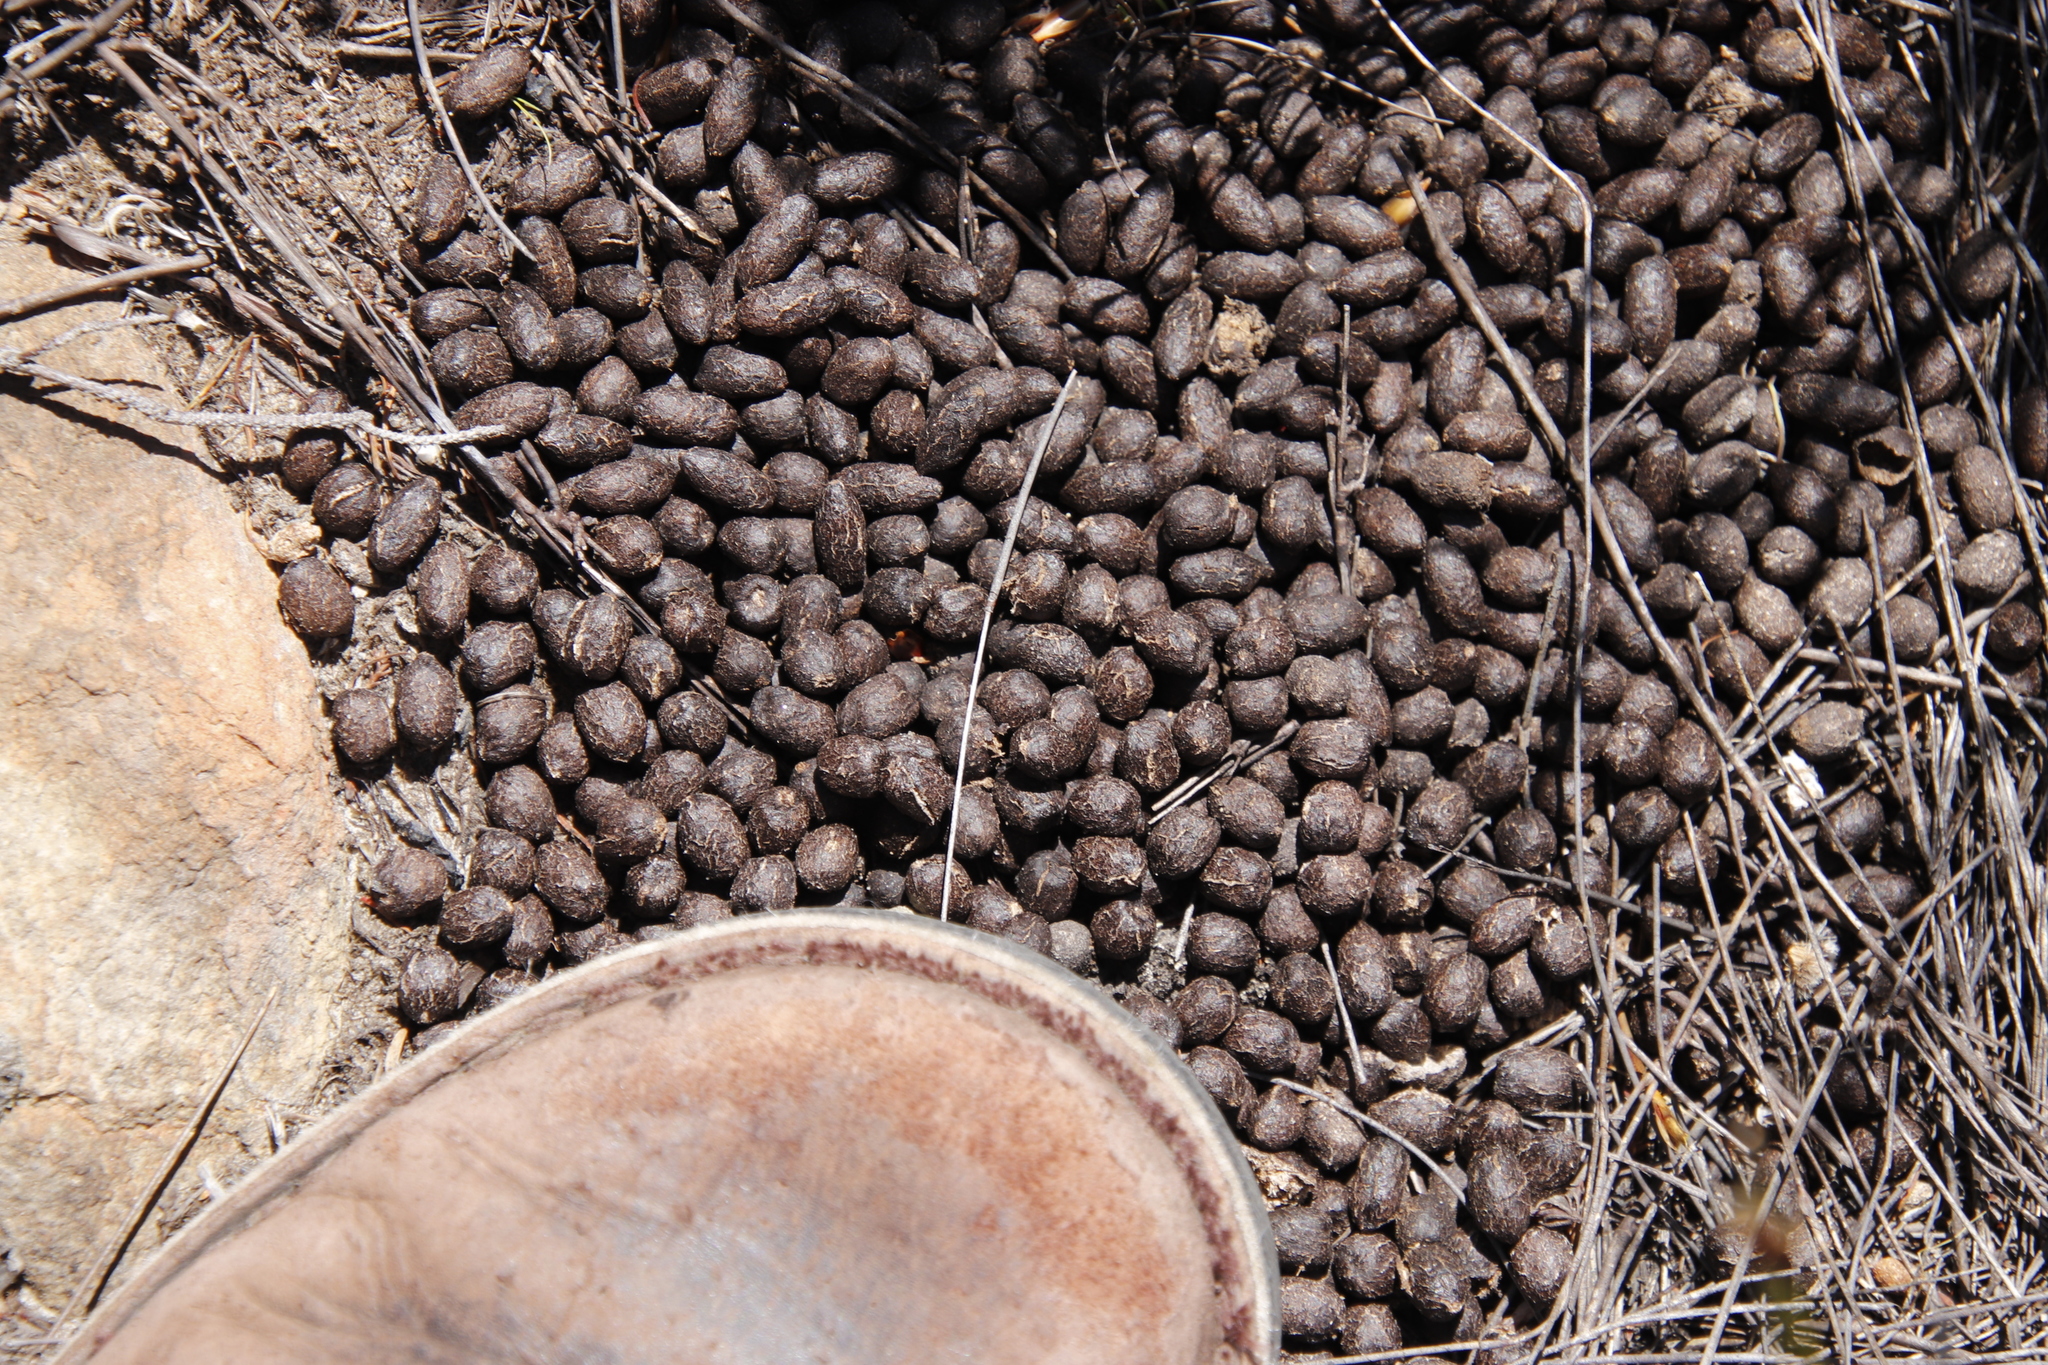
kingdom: Animalia
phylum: Chordata
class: Mammalia
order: Artiodactyla
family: Bovidae
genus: Oreotragus
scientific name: Oreotragus oreotragus
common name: Klipspringer
